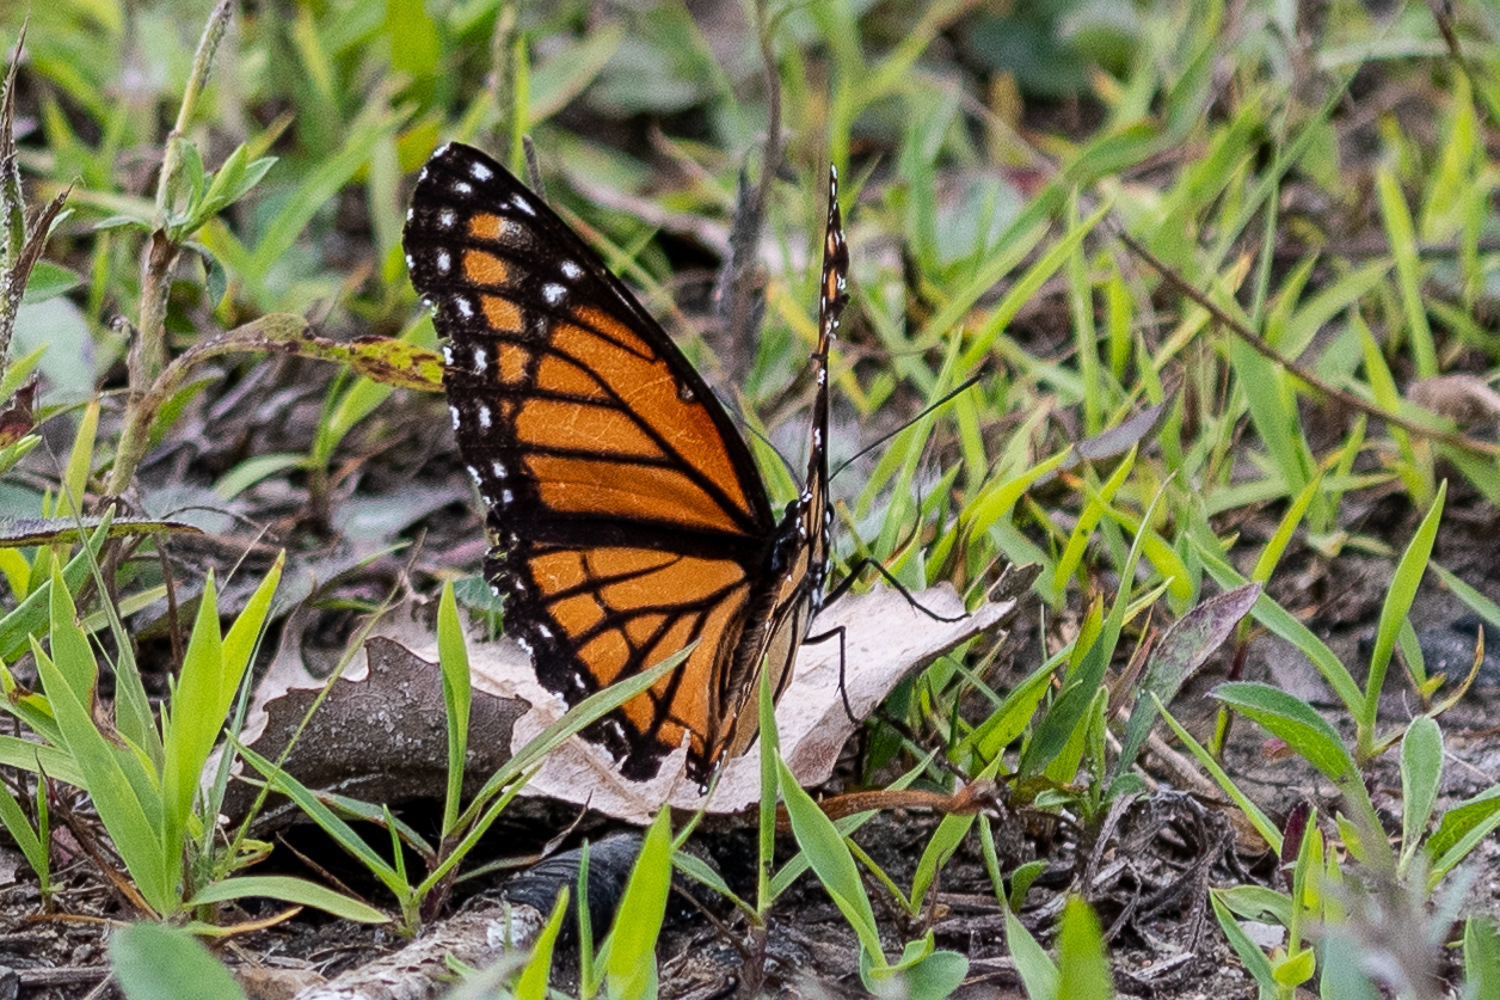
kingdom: Animalia
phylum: Arthropoda
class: Insecta
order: Lepidoptera
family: Nymphalidae
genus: Limenitis
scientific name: Limenitis archippus
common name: Viceroy
